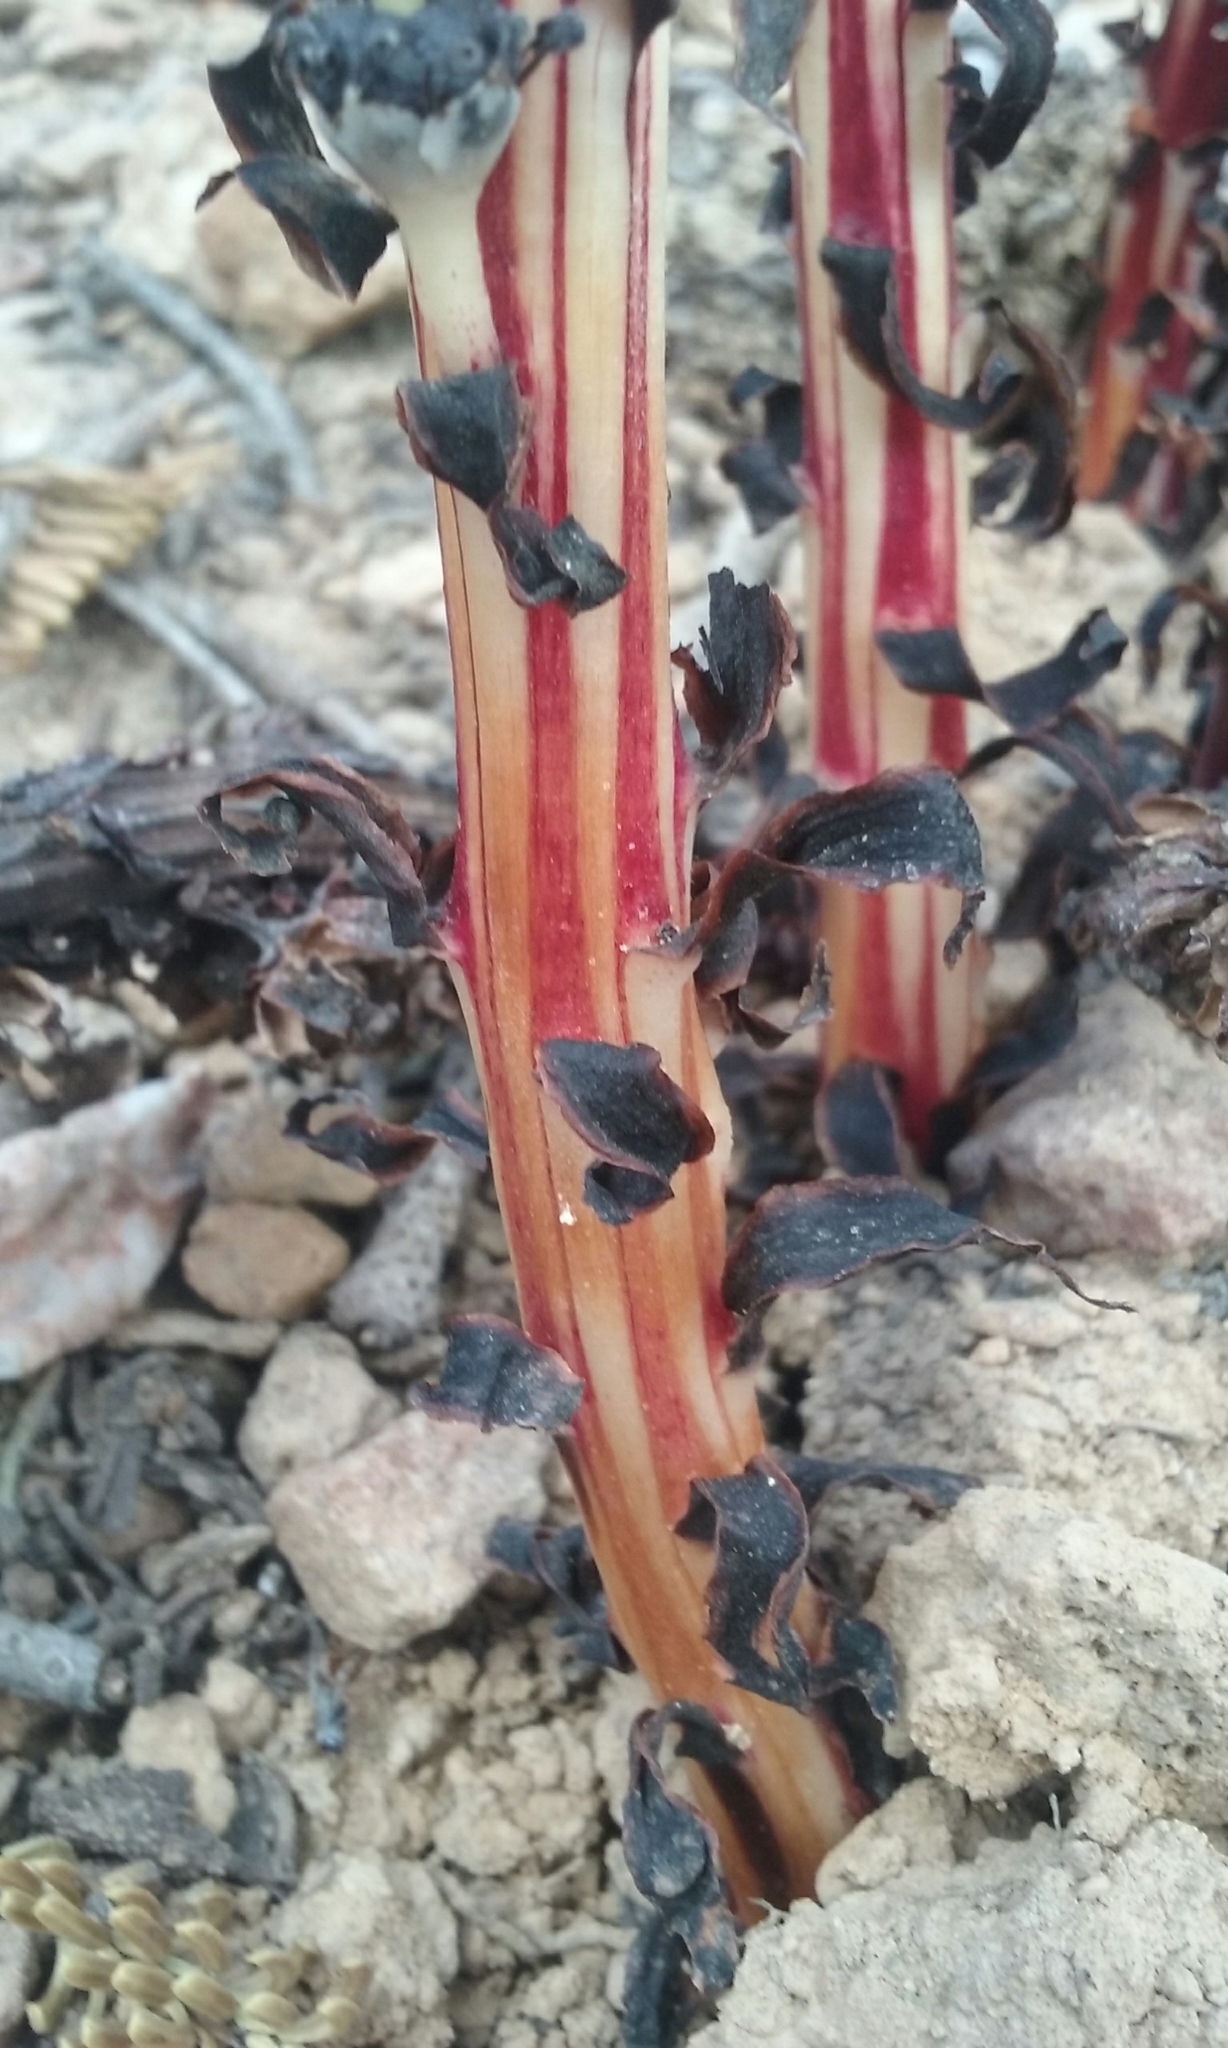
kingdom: Plantae
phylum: Tracheophyta
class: Magnoliopsida
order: Ericales
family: Ericaceae
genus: Allotropa
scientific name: Allotropa virgata
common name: Candy-striped allotropa
